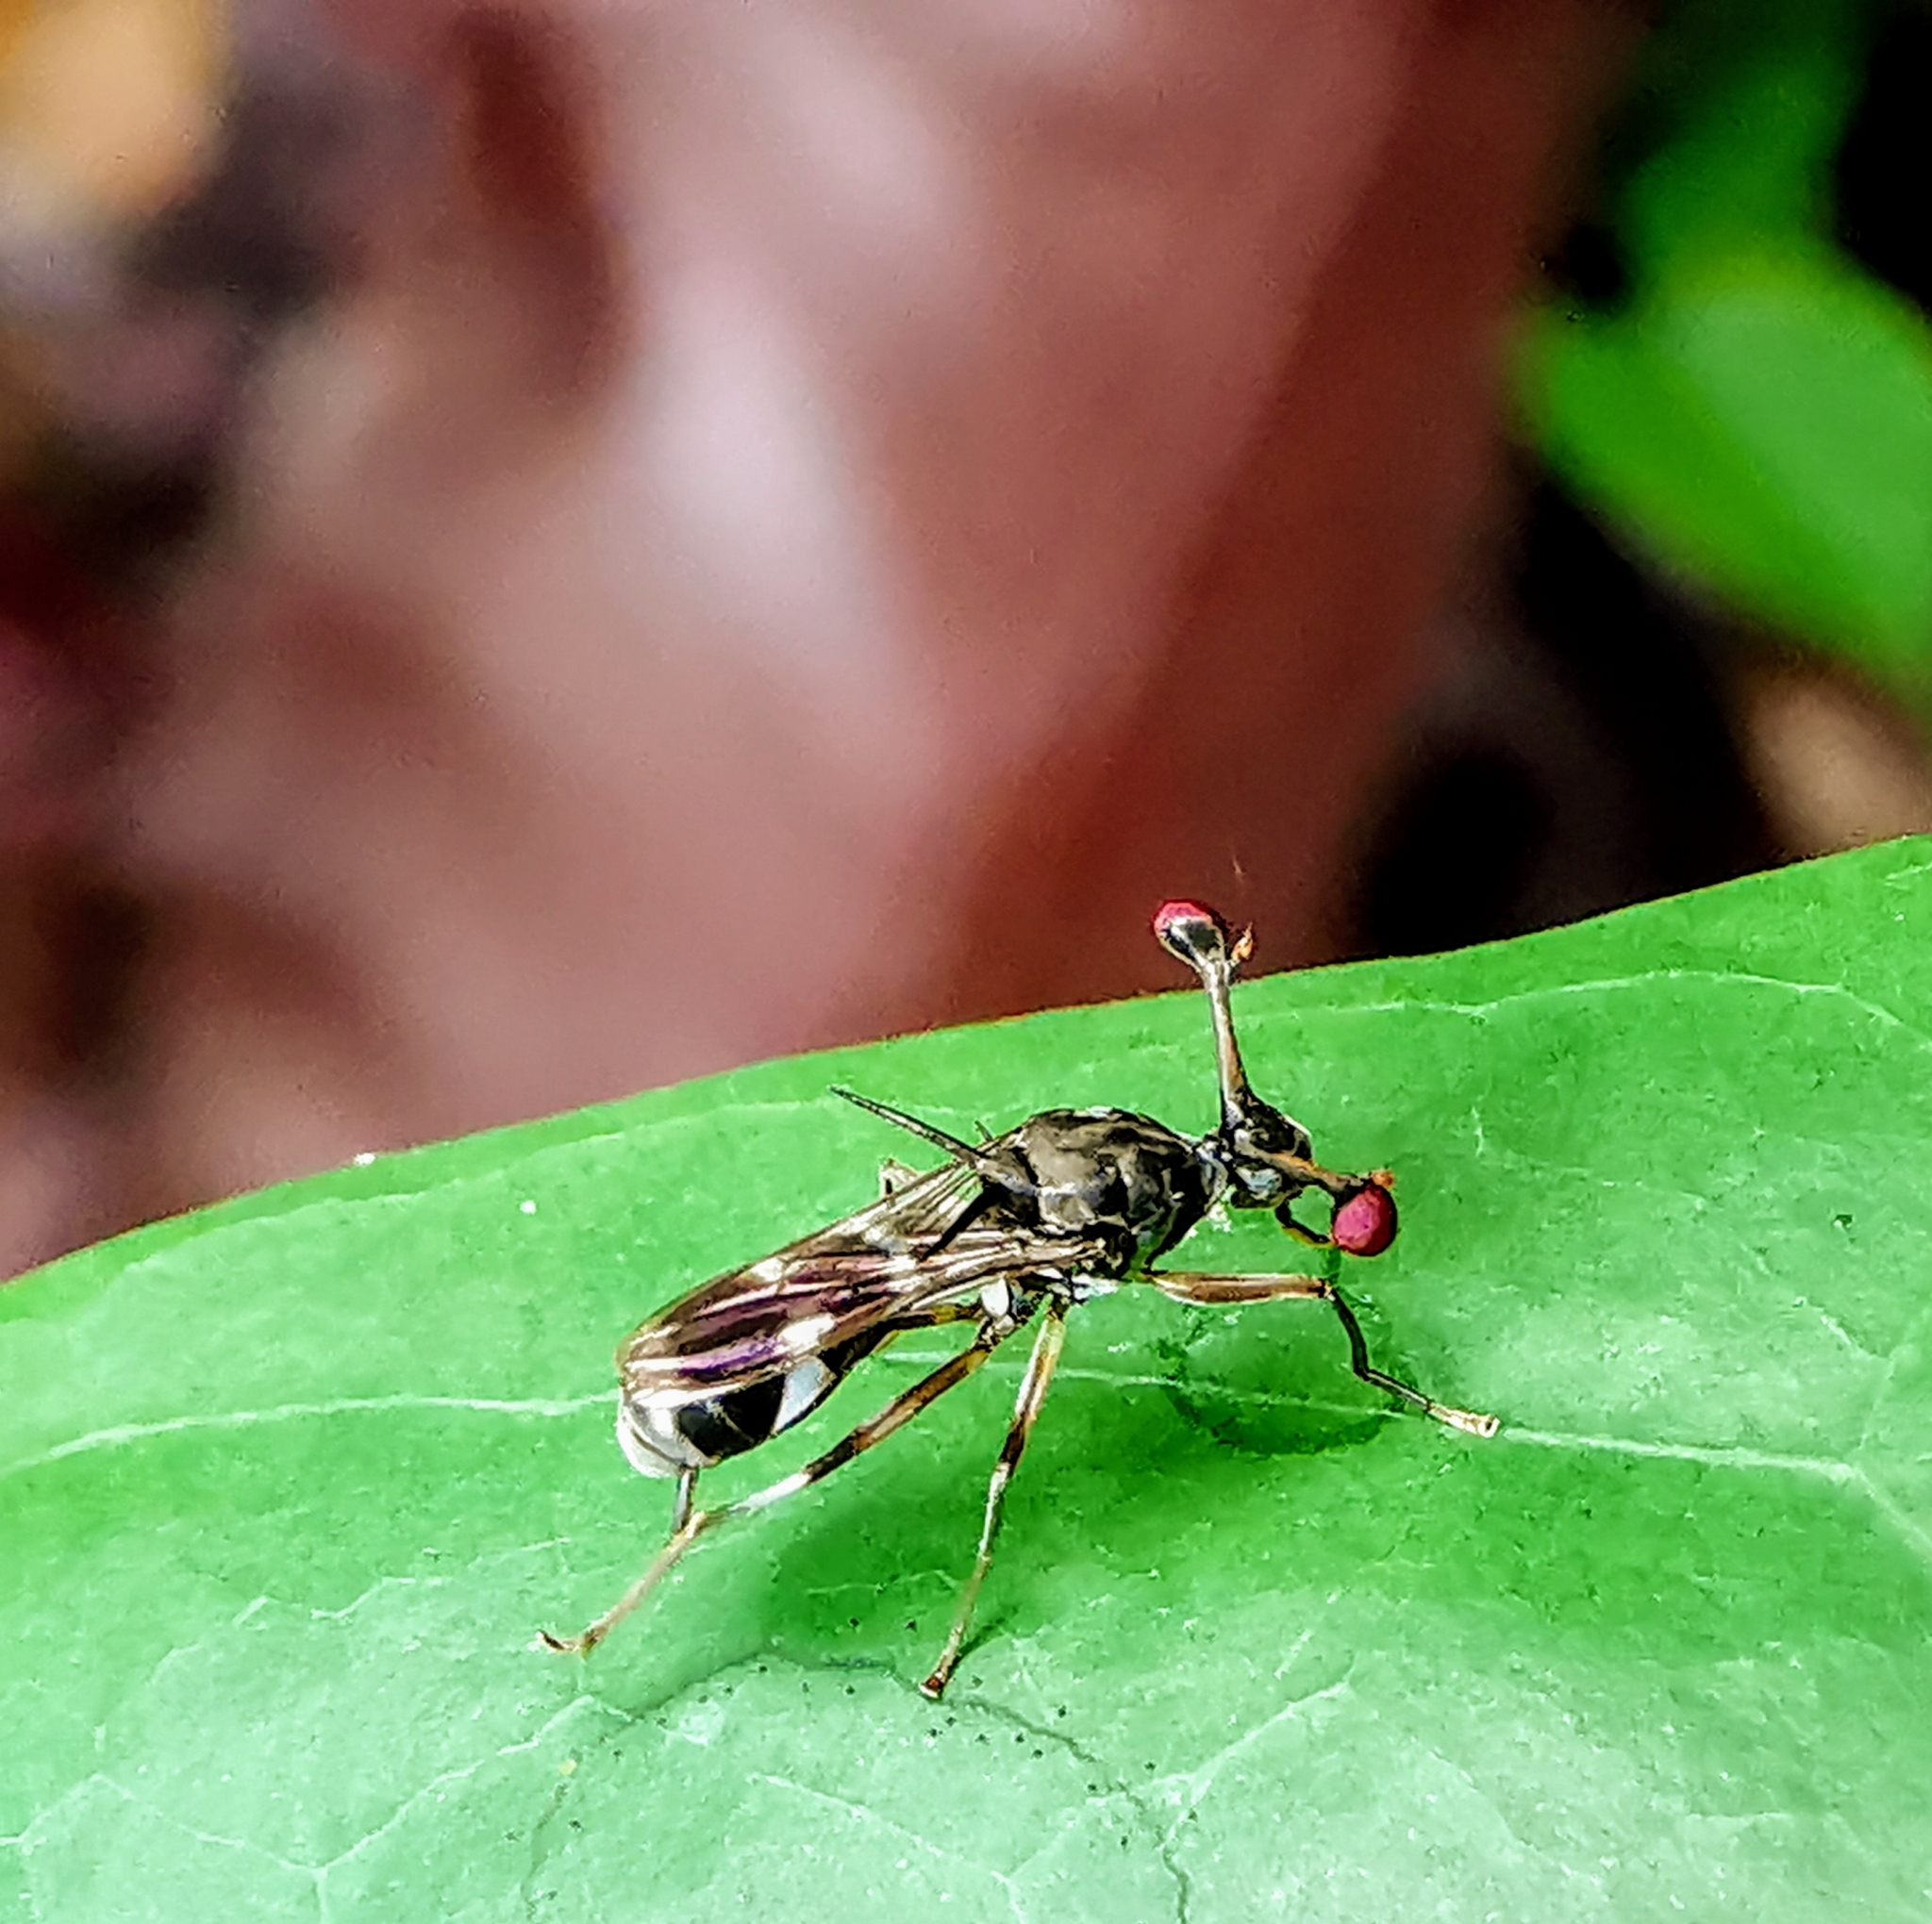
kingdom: Animalia
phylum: Arthropoda
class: Insecta
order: Diptera
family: Diopsidae
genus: Eurydiopsis
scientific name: Eurydiopsis
